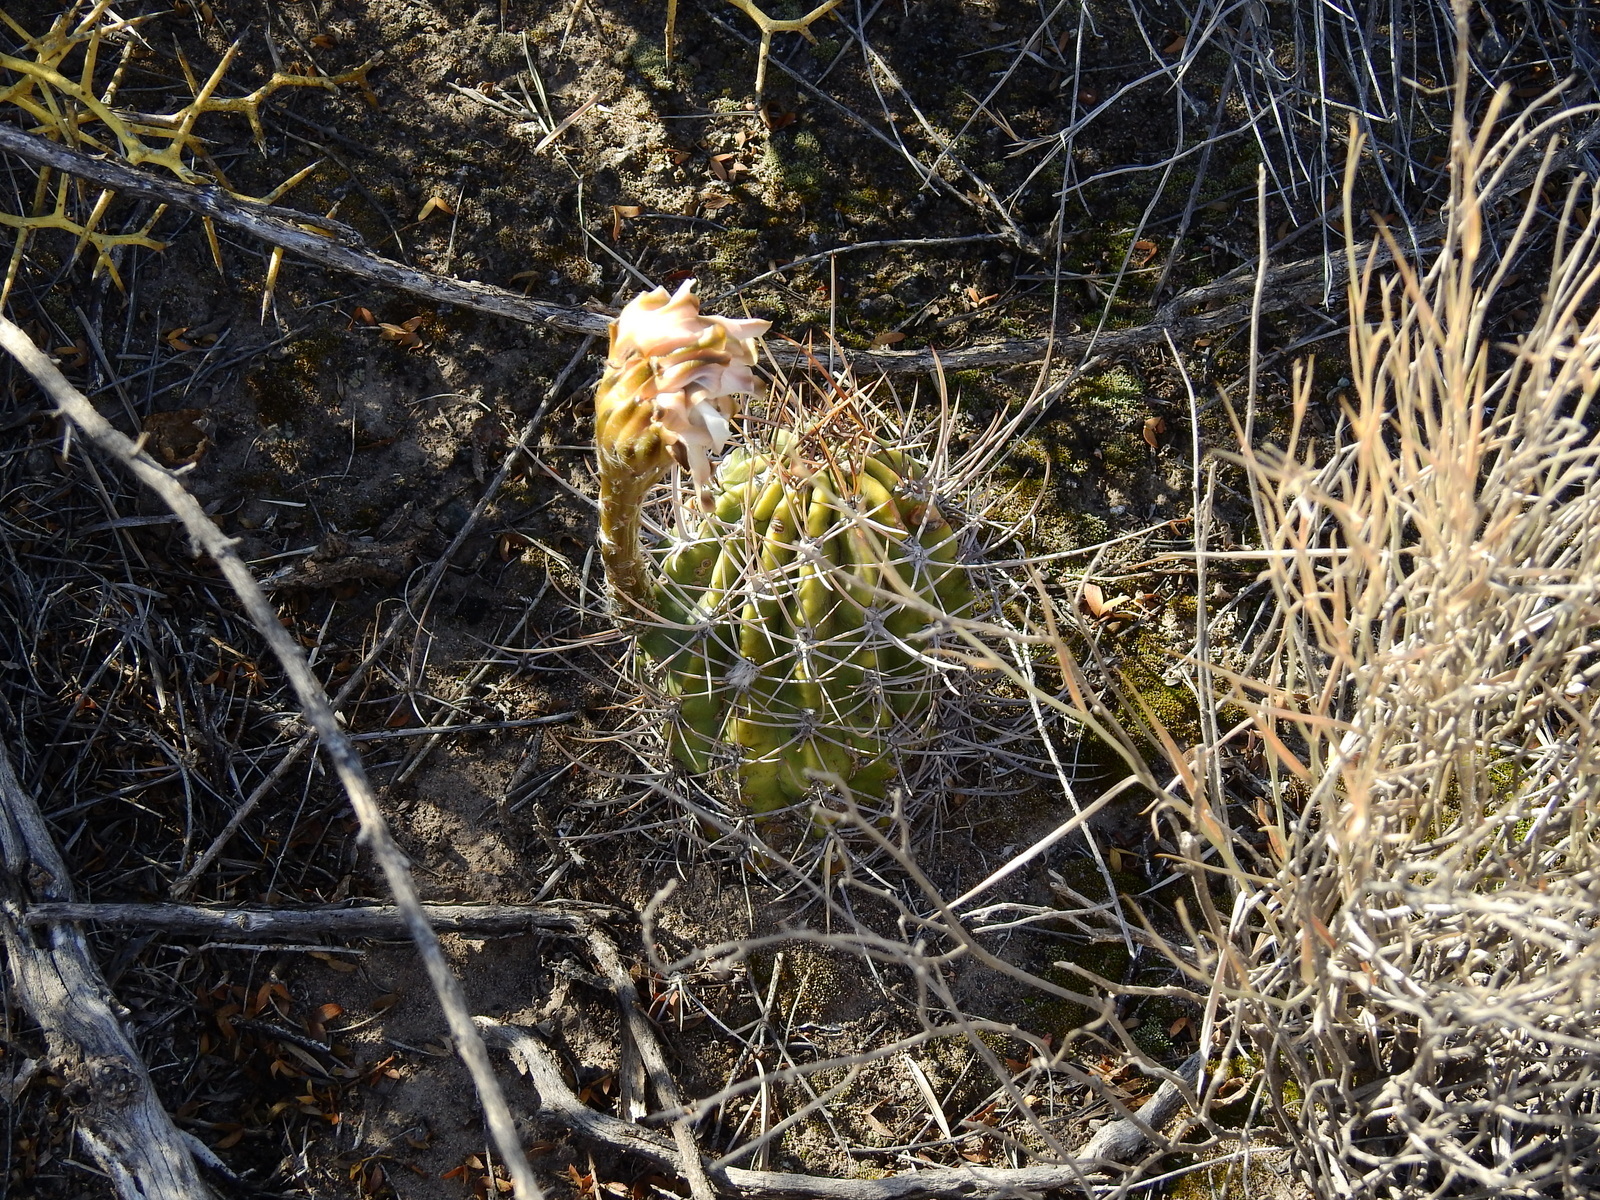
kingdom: Plantae
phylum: Tracheophyta
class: Magnoliopsida
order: Caryophyllales
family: Cactaceae
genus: Acanthocalycium
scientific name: Acanthocalycium leucanthum
